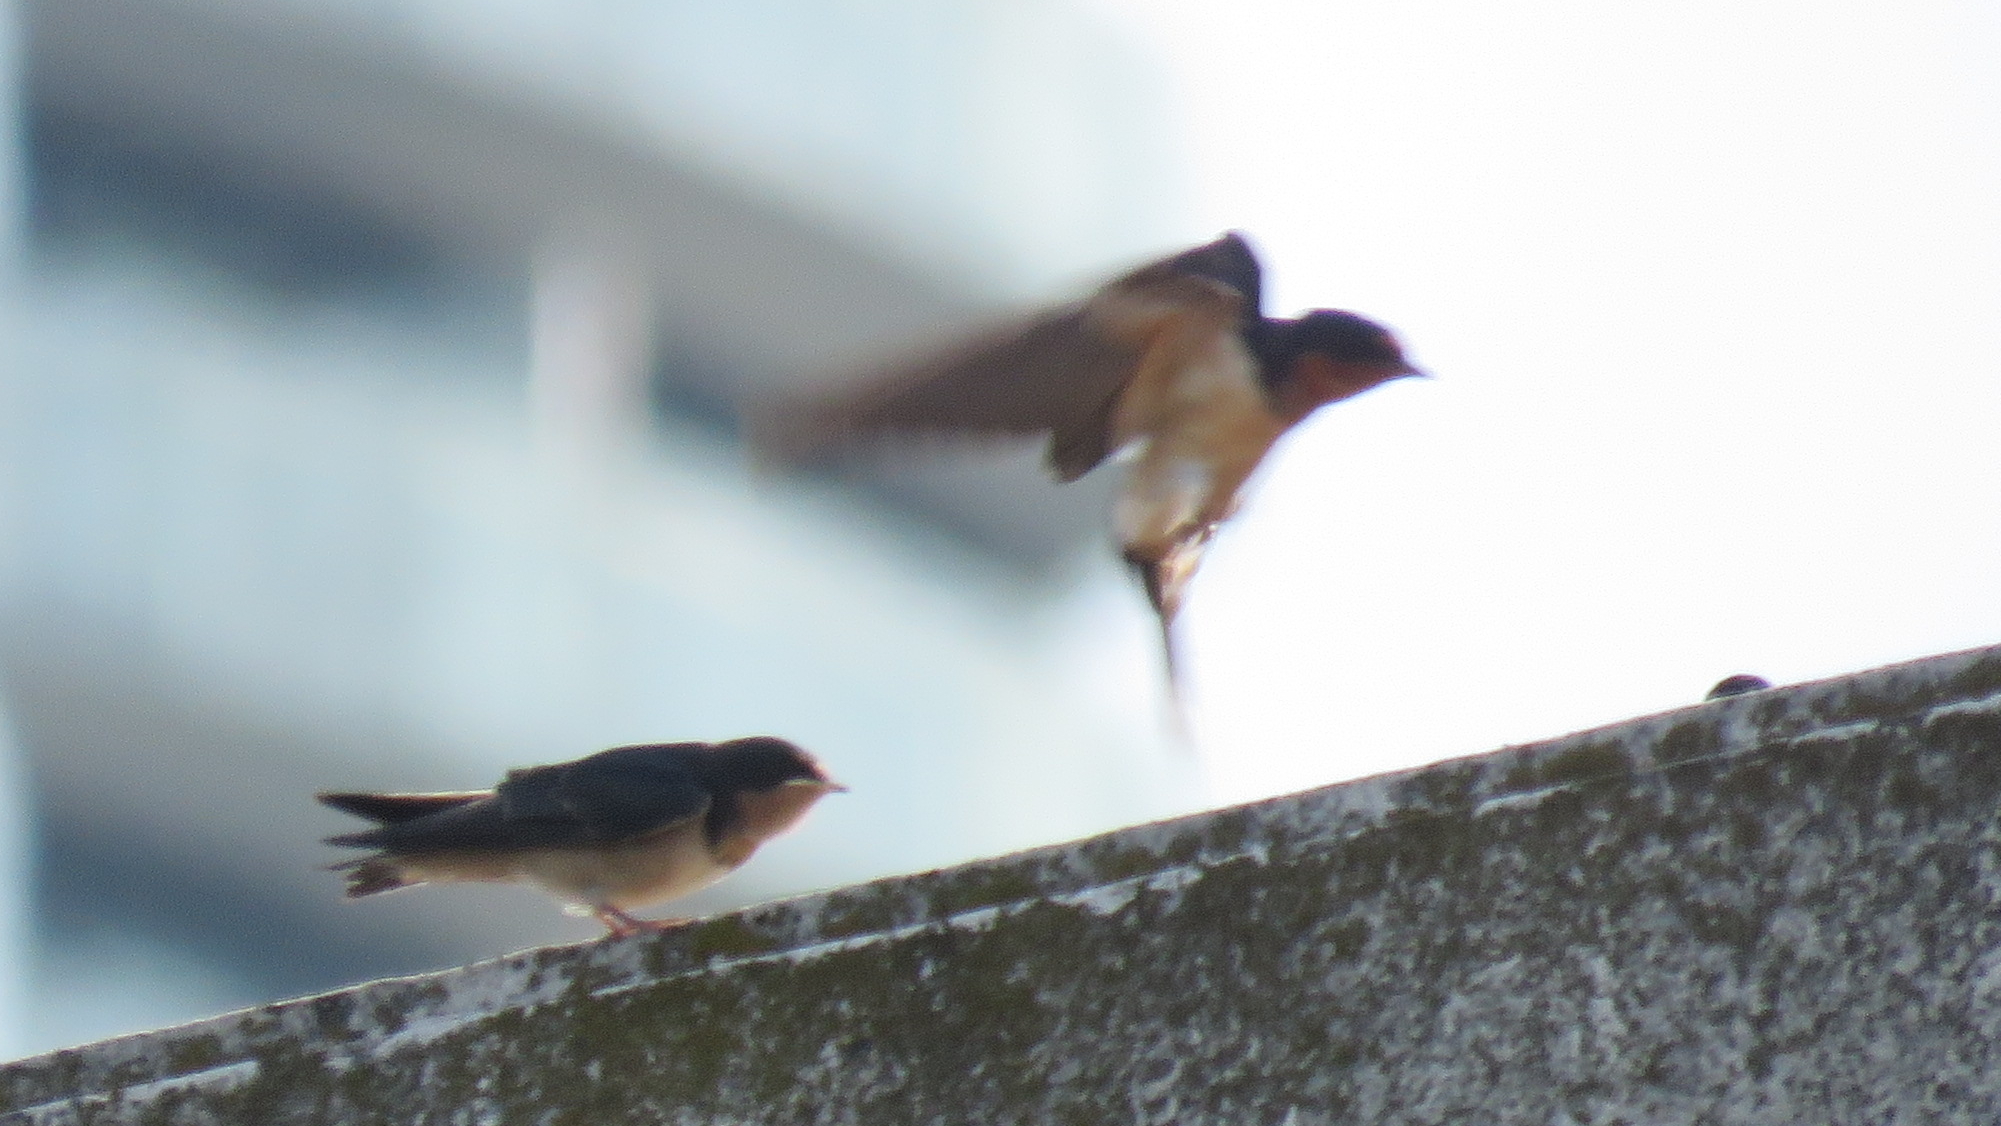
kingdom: Animalia
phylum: Chordata
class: Aves
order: Passeriformes
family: Hirundinidae
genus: Hirundo
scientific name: Hirundo rustica
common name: Barn swallow
